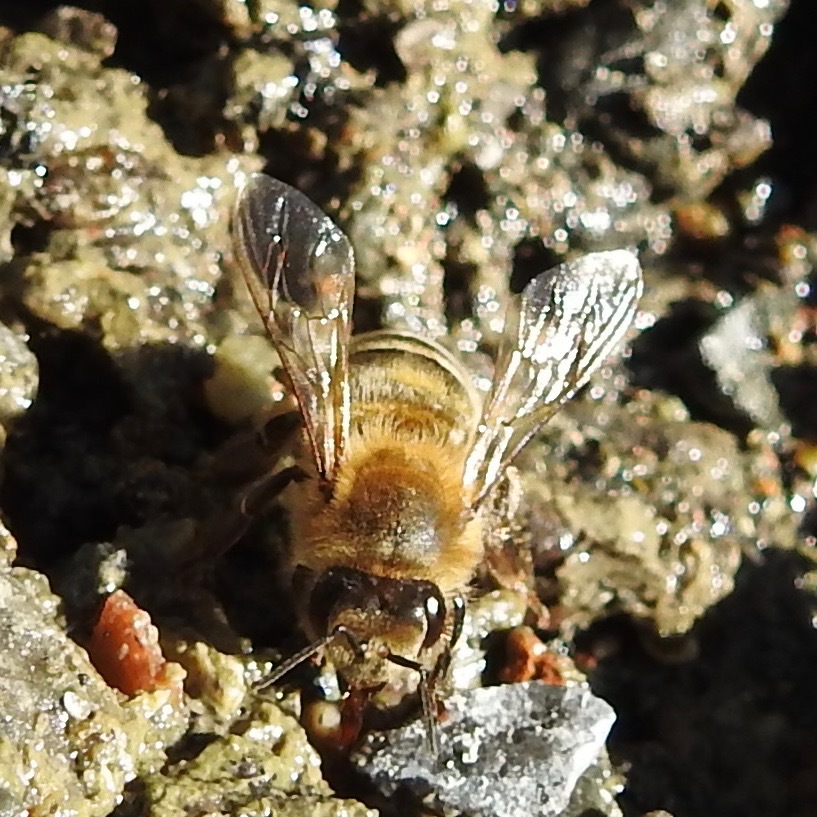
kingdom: Animalia
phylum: Arthropoda
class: Insecta
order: Hymenoptera
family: Apidae
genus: Apis
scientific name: Apis mellifera
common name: Honey bee
